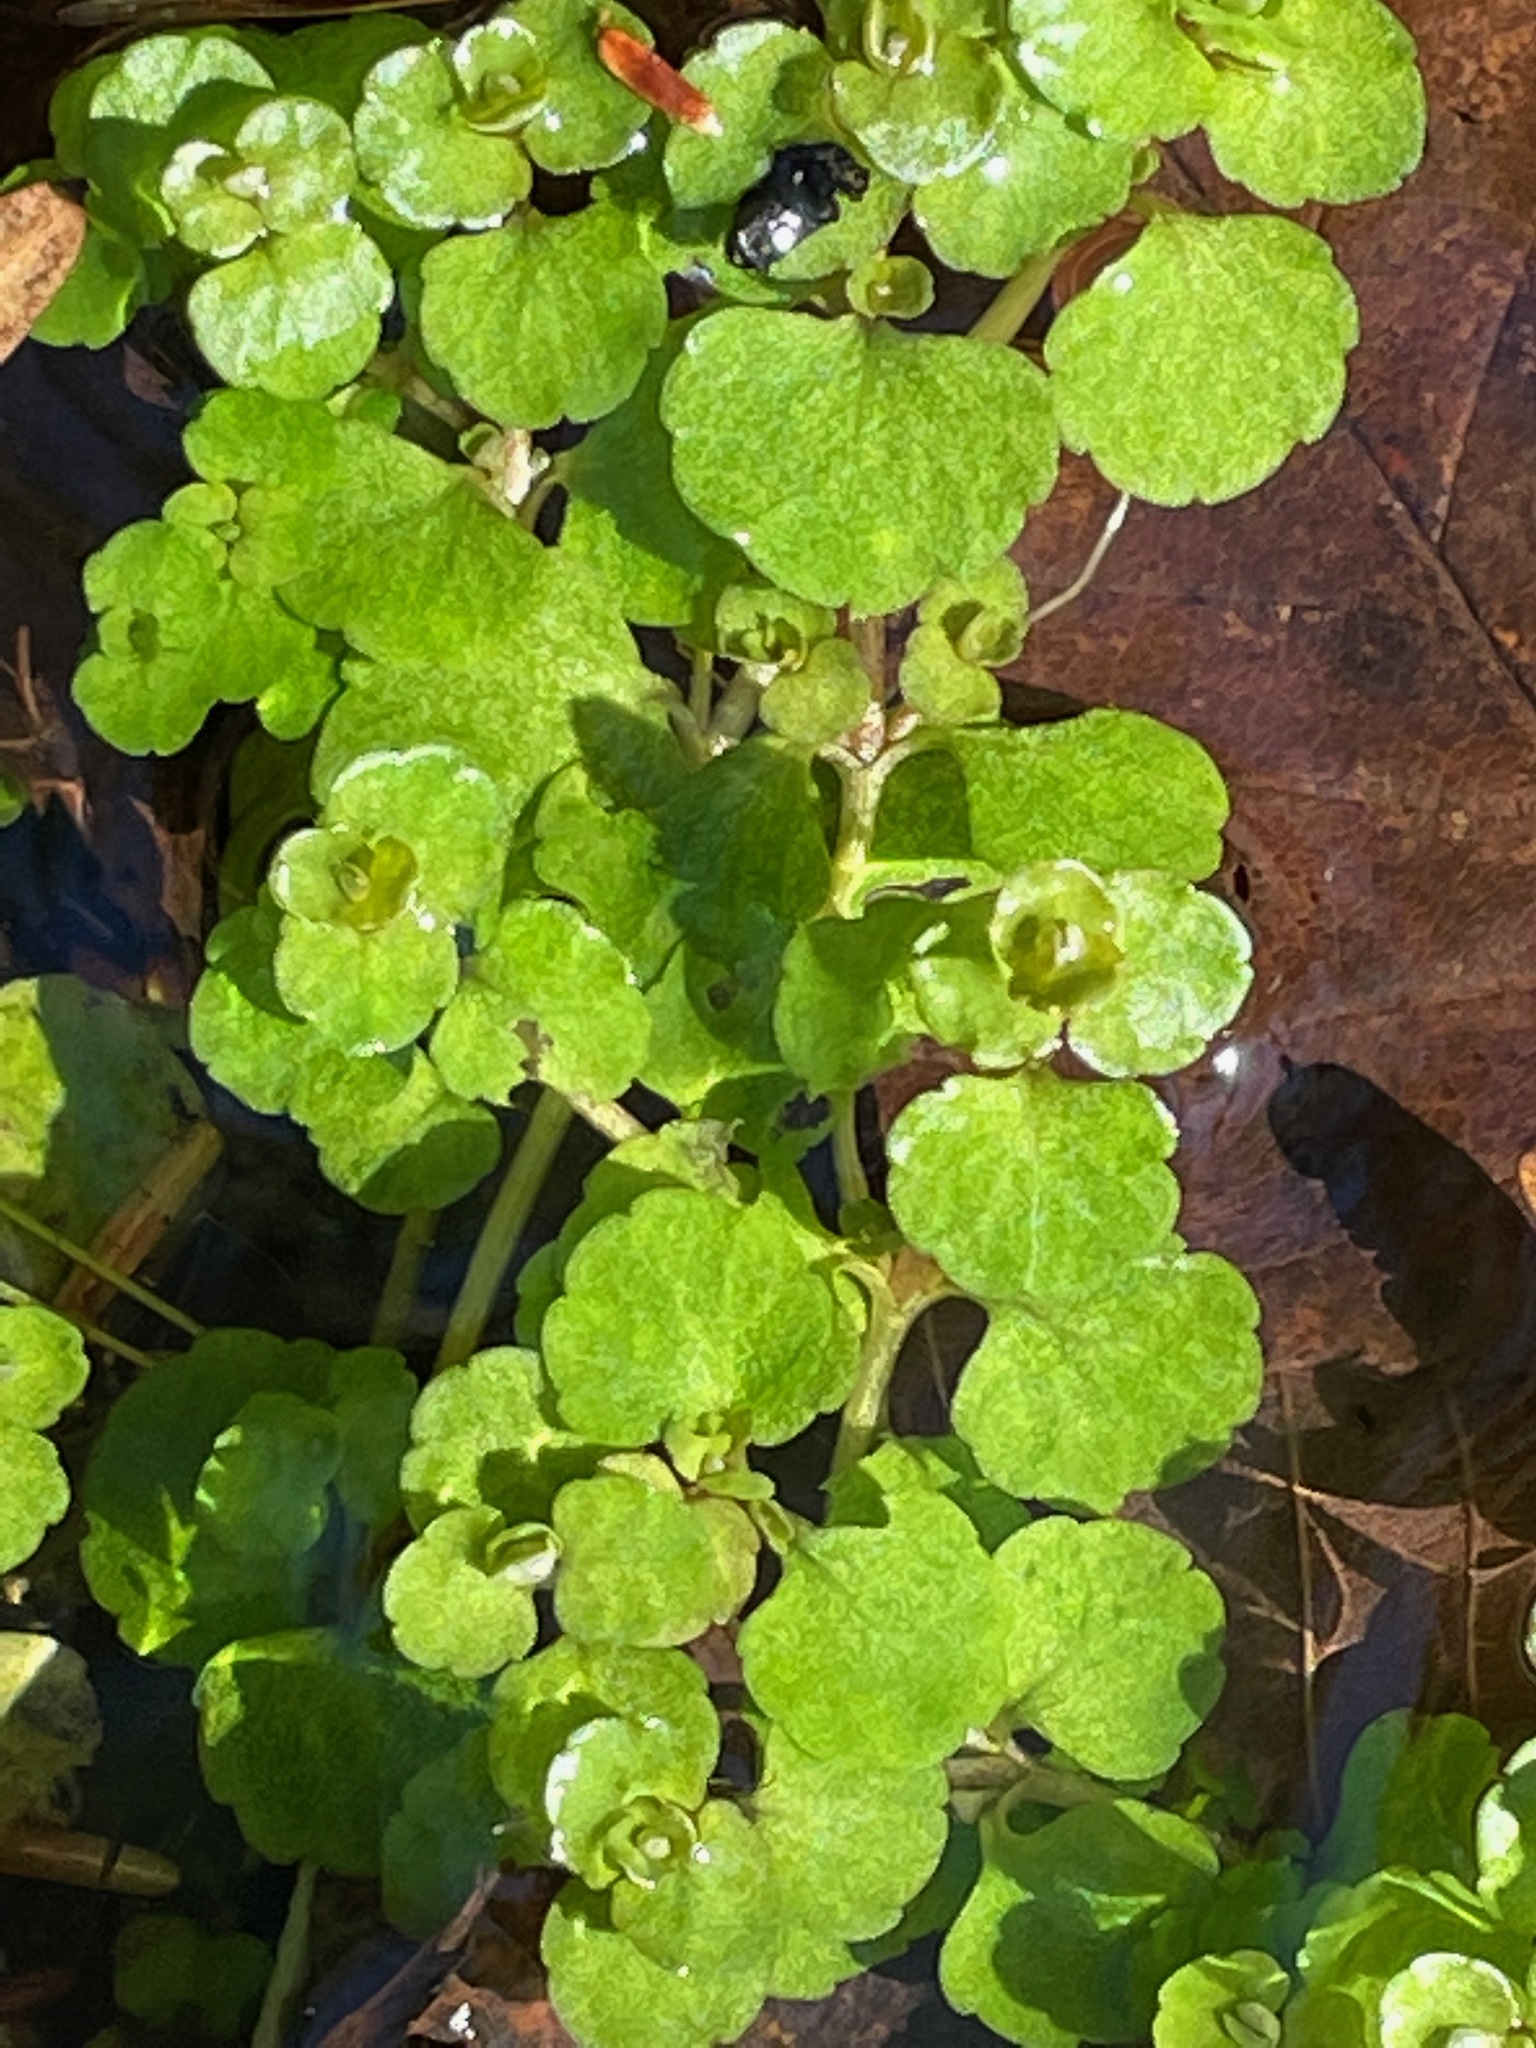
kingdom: Plantae
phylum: Tracheophyta
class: Magnoliopsida
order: Saxifragales
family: Saxifragaceae
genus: Chrysosplenium
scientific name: Chrysosplenium americanum
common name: American golden-saxifrage
